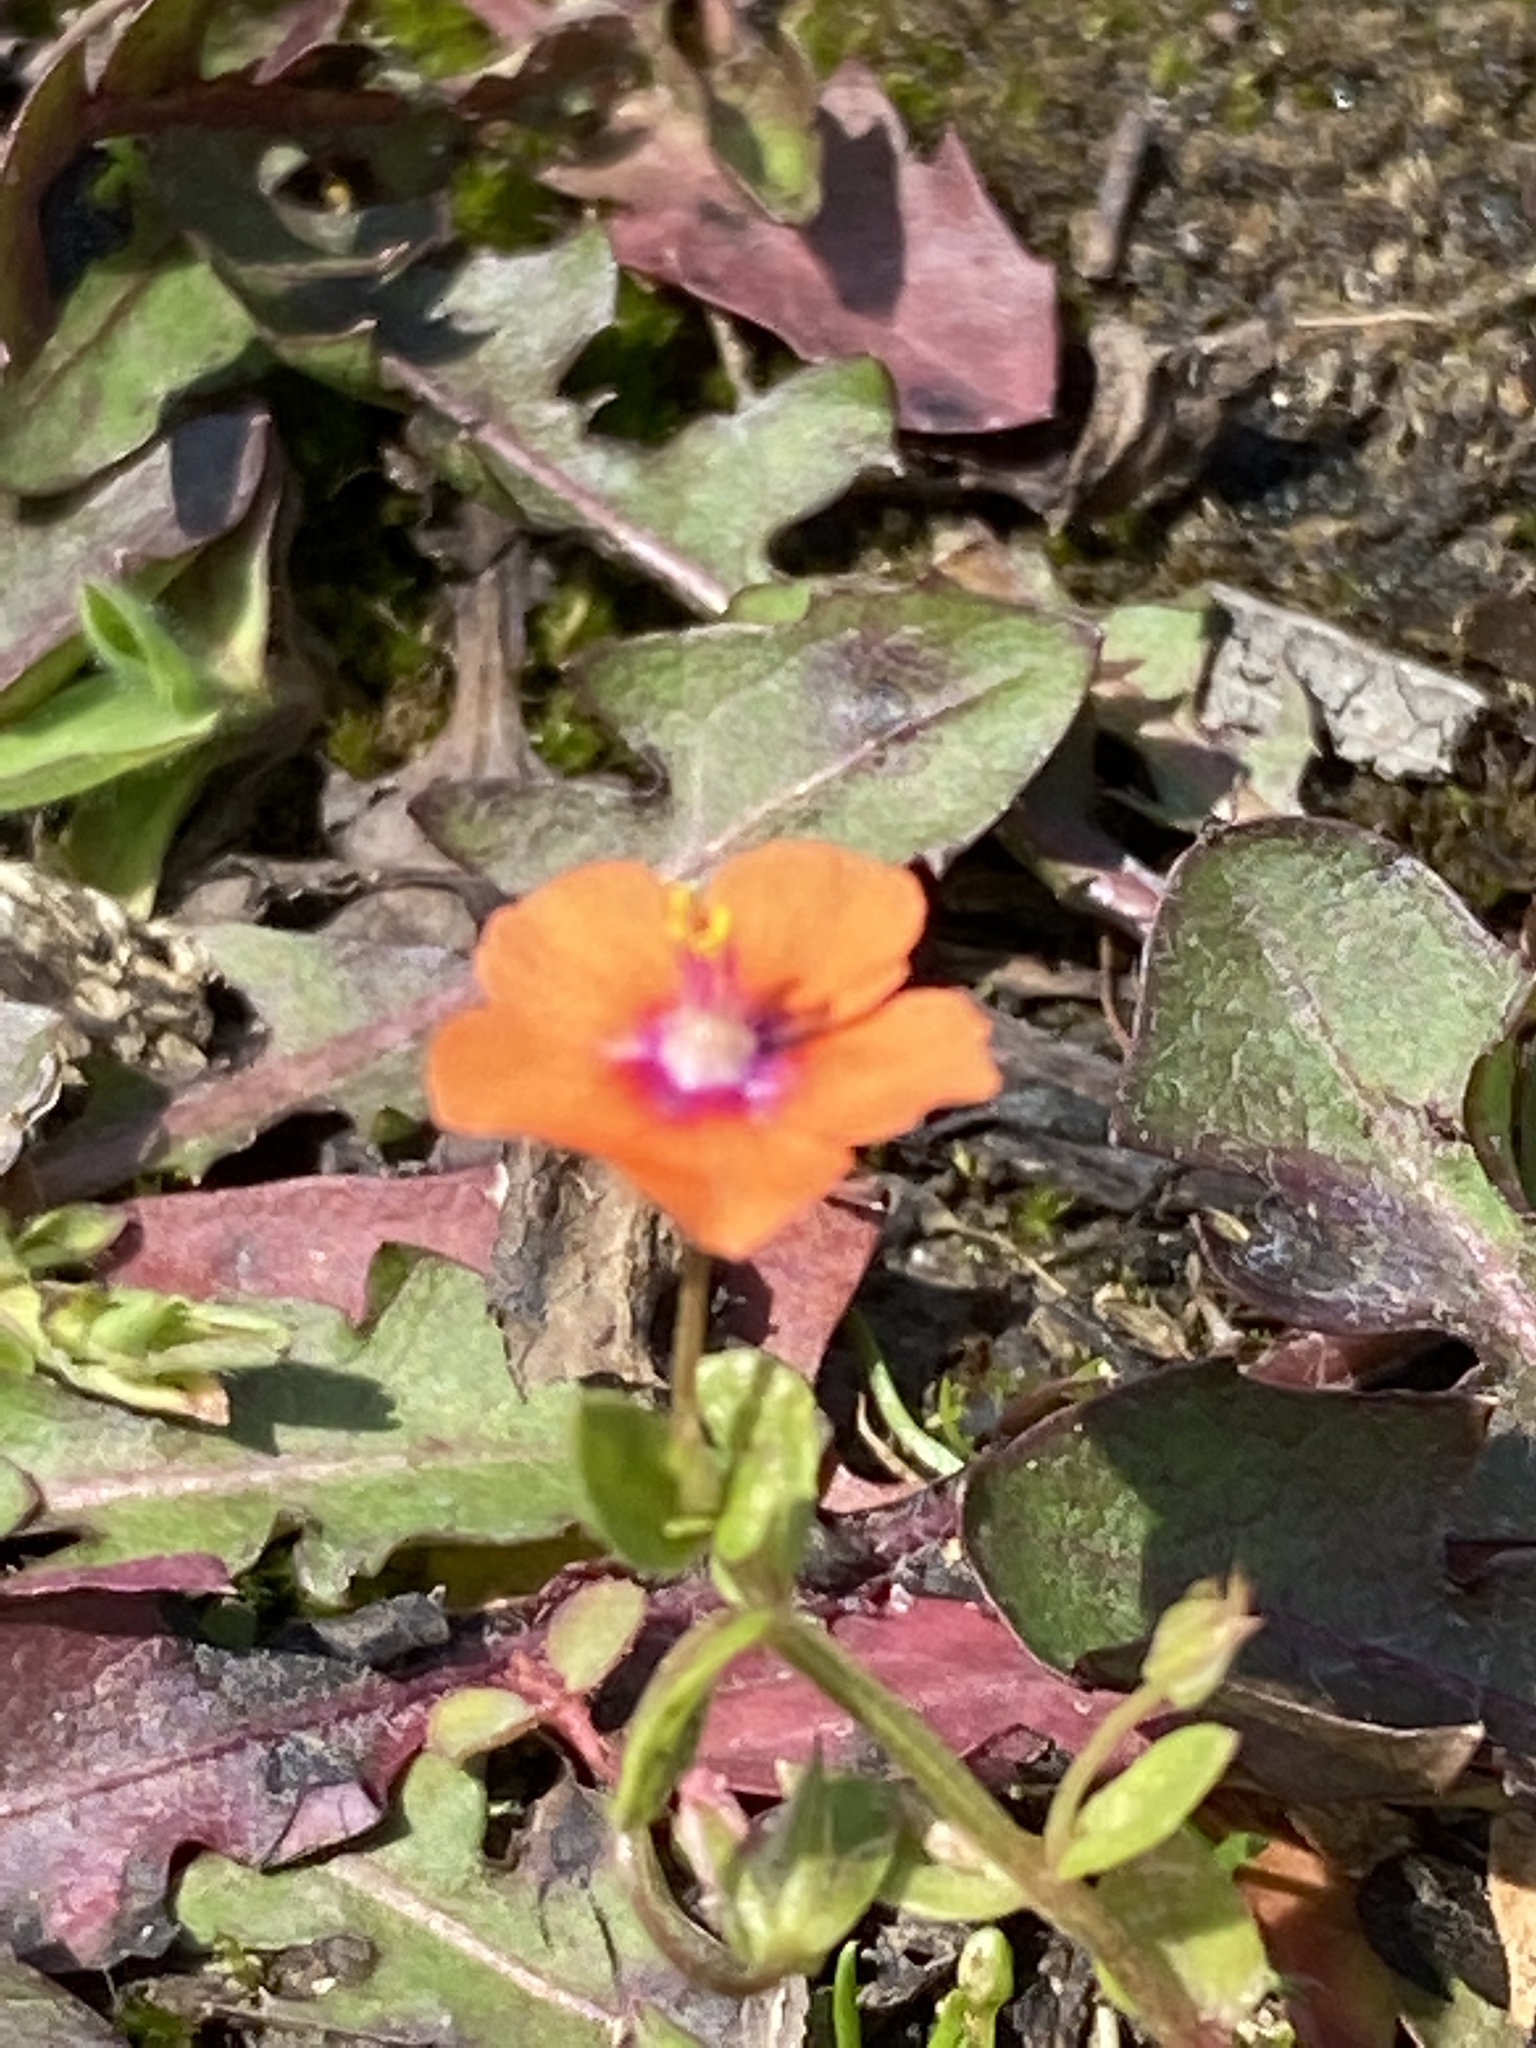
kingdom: Plantae
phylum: Tracheophyta
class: Magnoliopsida
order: Ericales
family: Primulaceae
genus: Lysimachia
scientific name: Lysimachia arvensis
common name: Scarlet pimpernel
